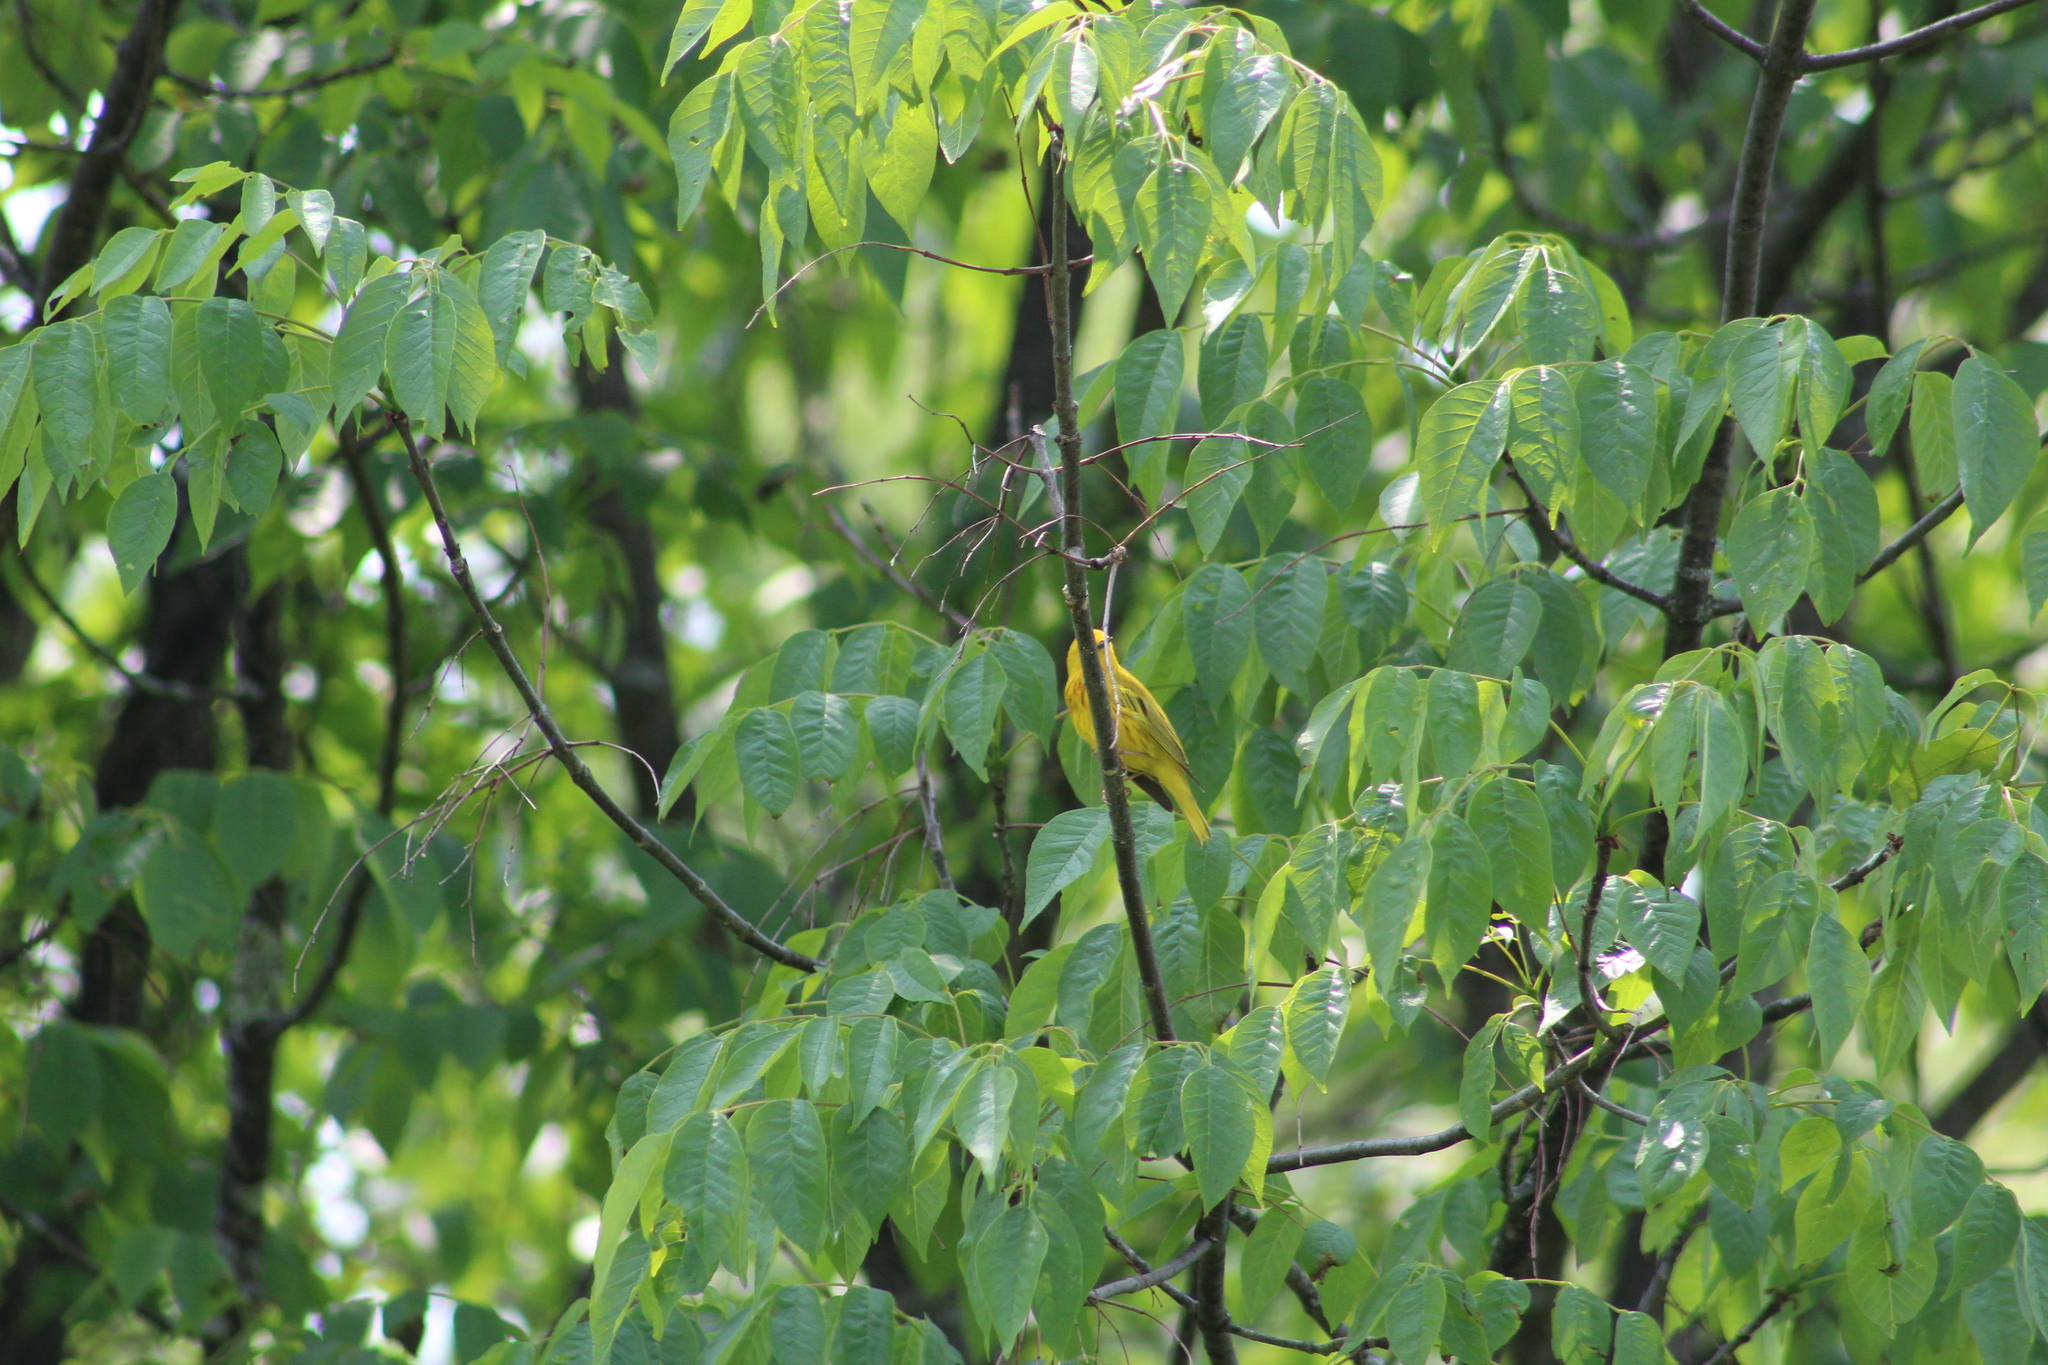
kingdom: Animalia
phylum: Chordata
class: Aves
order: Passeriformes
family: Parulidae
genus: Setophaga
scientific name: Setophaga petechia
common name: Yellow warbler
